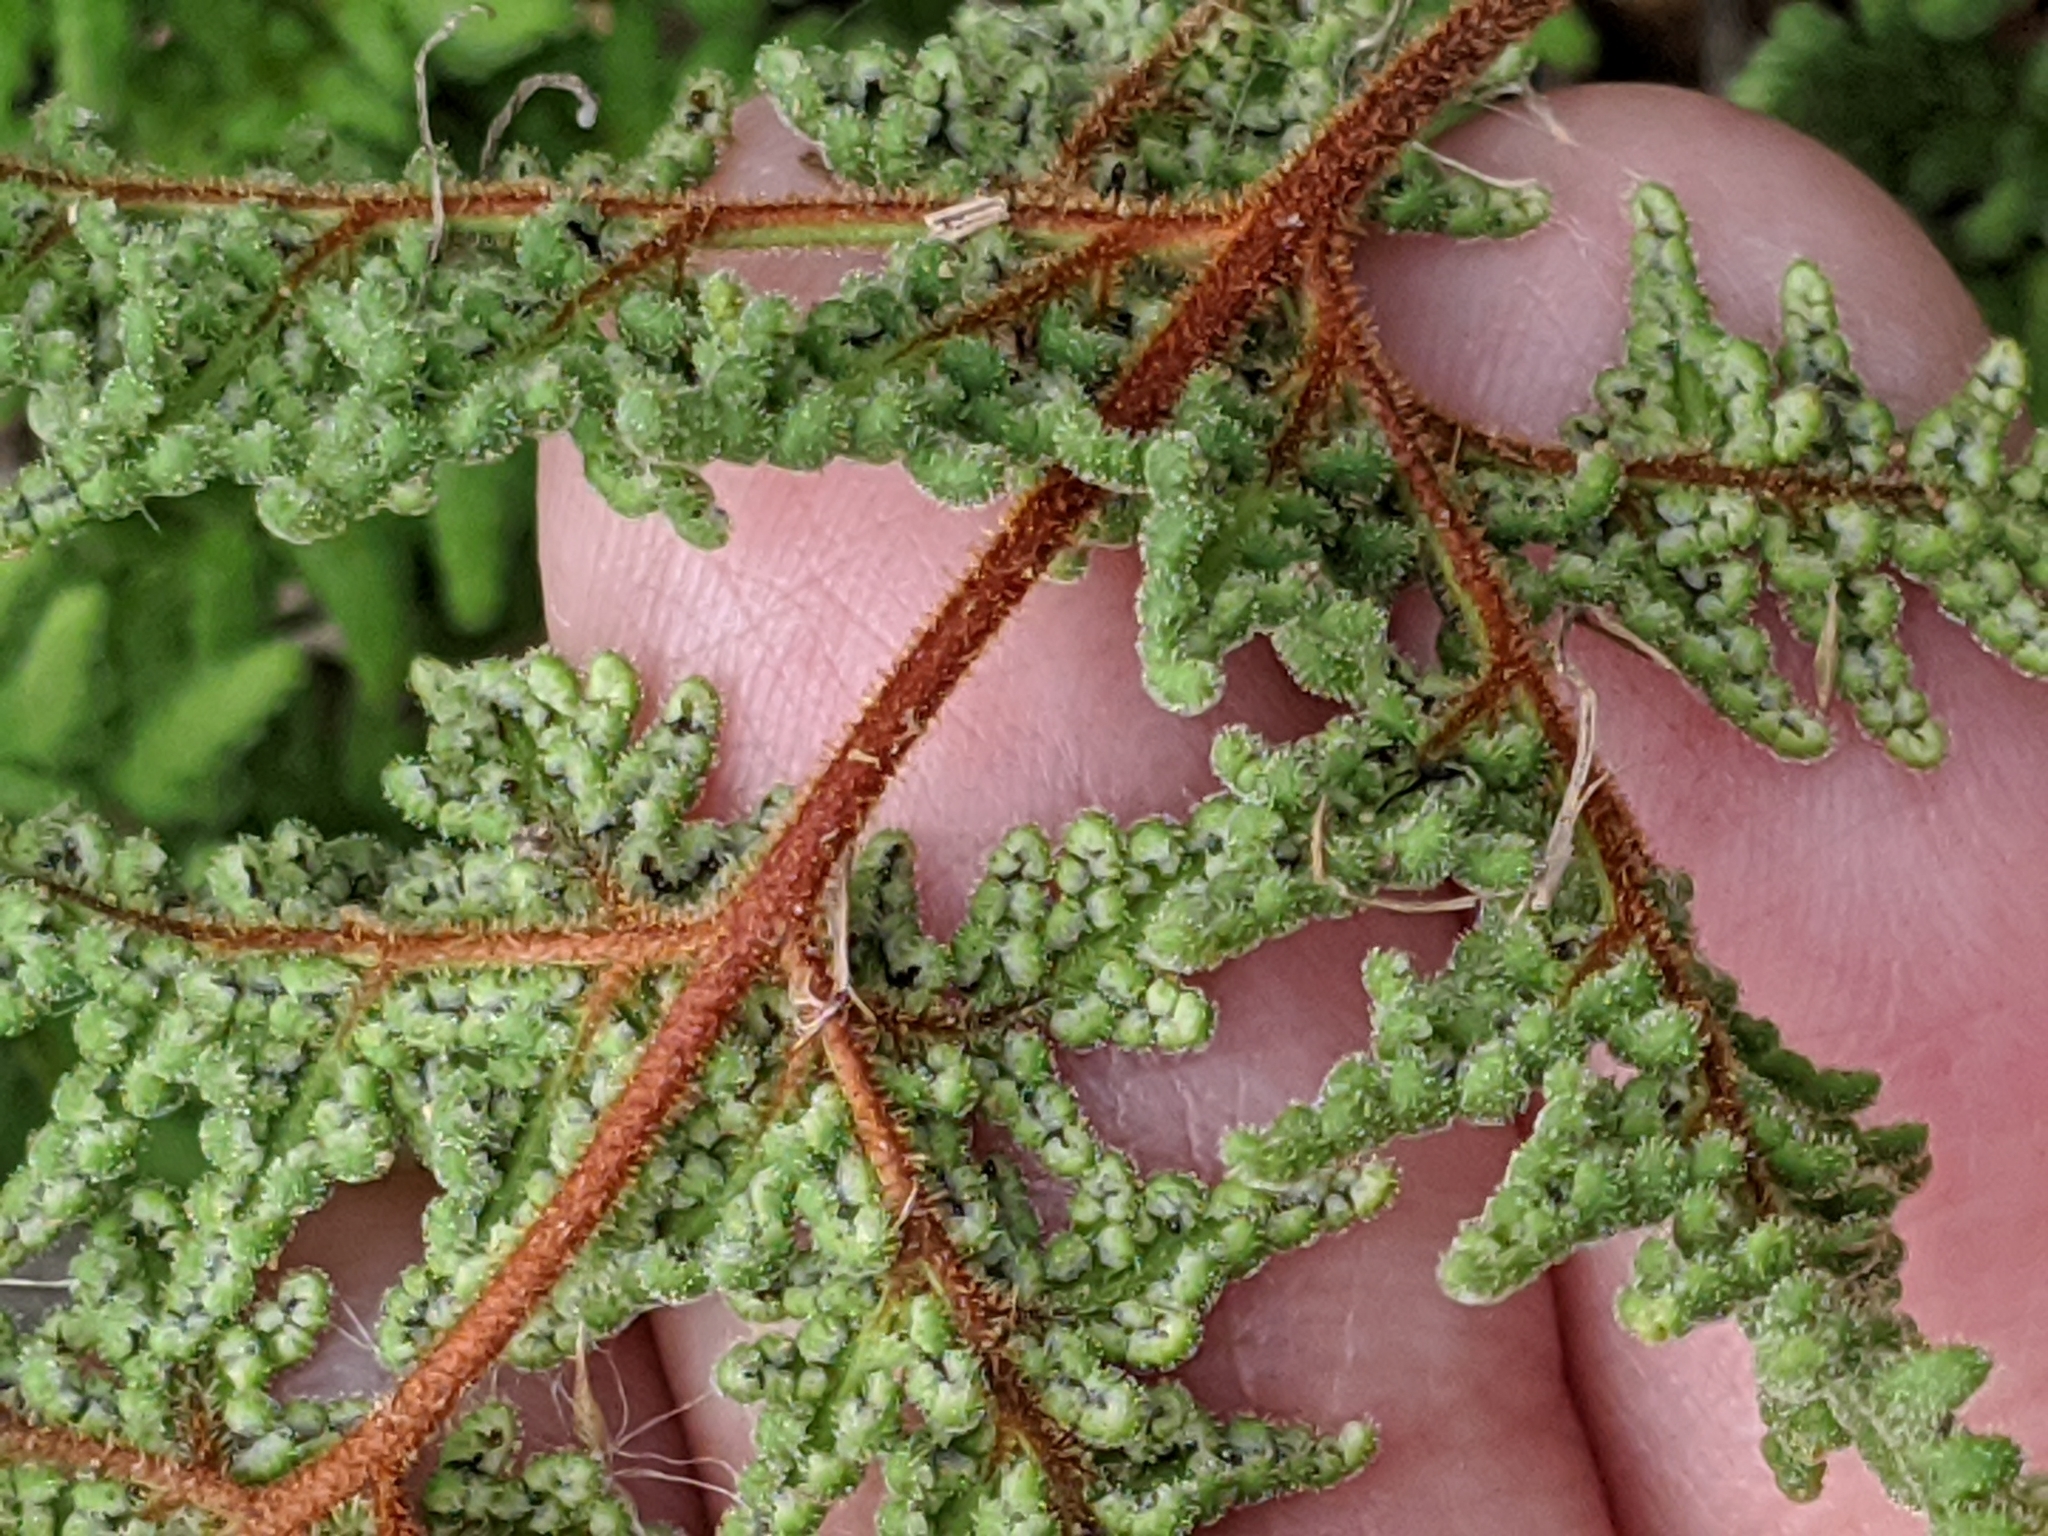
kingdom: Plantae
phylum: Tracheophyta
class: Polypodiopsida
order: Polypodiales
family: Pteridaceae
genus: Gaga
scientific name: Gaga kaulfussii
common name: Glandular lip fern
